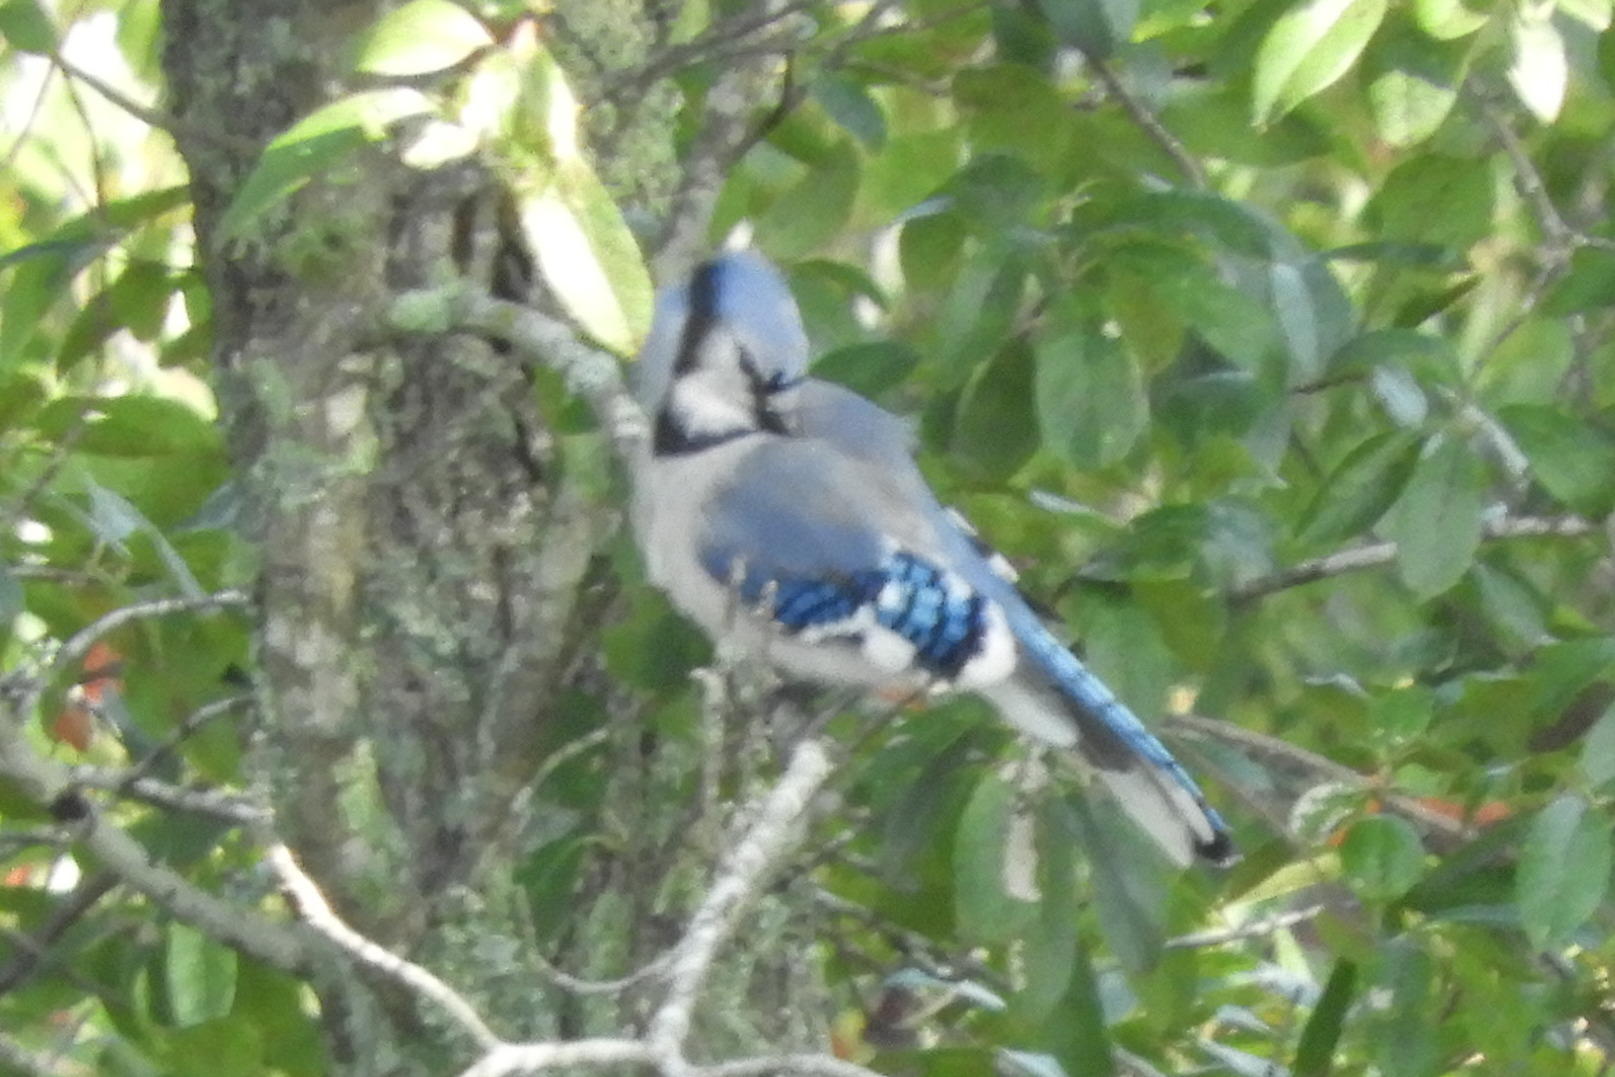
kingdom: Animalia
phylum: Chordata
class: Aves
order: Passeriformes
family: Corvidae
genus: Cyanocitta
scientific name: Cyanocitta cristata
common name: Blue jay
